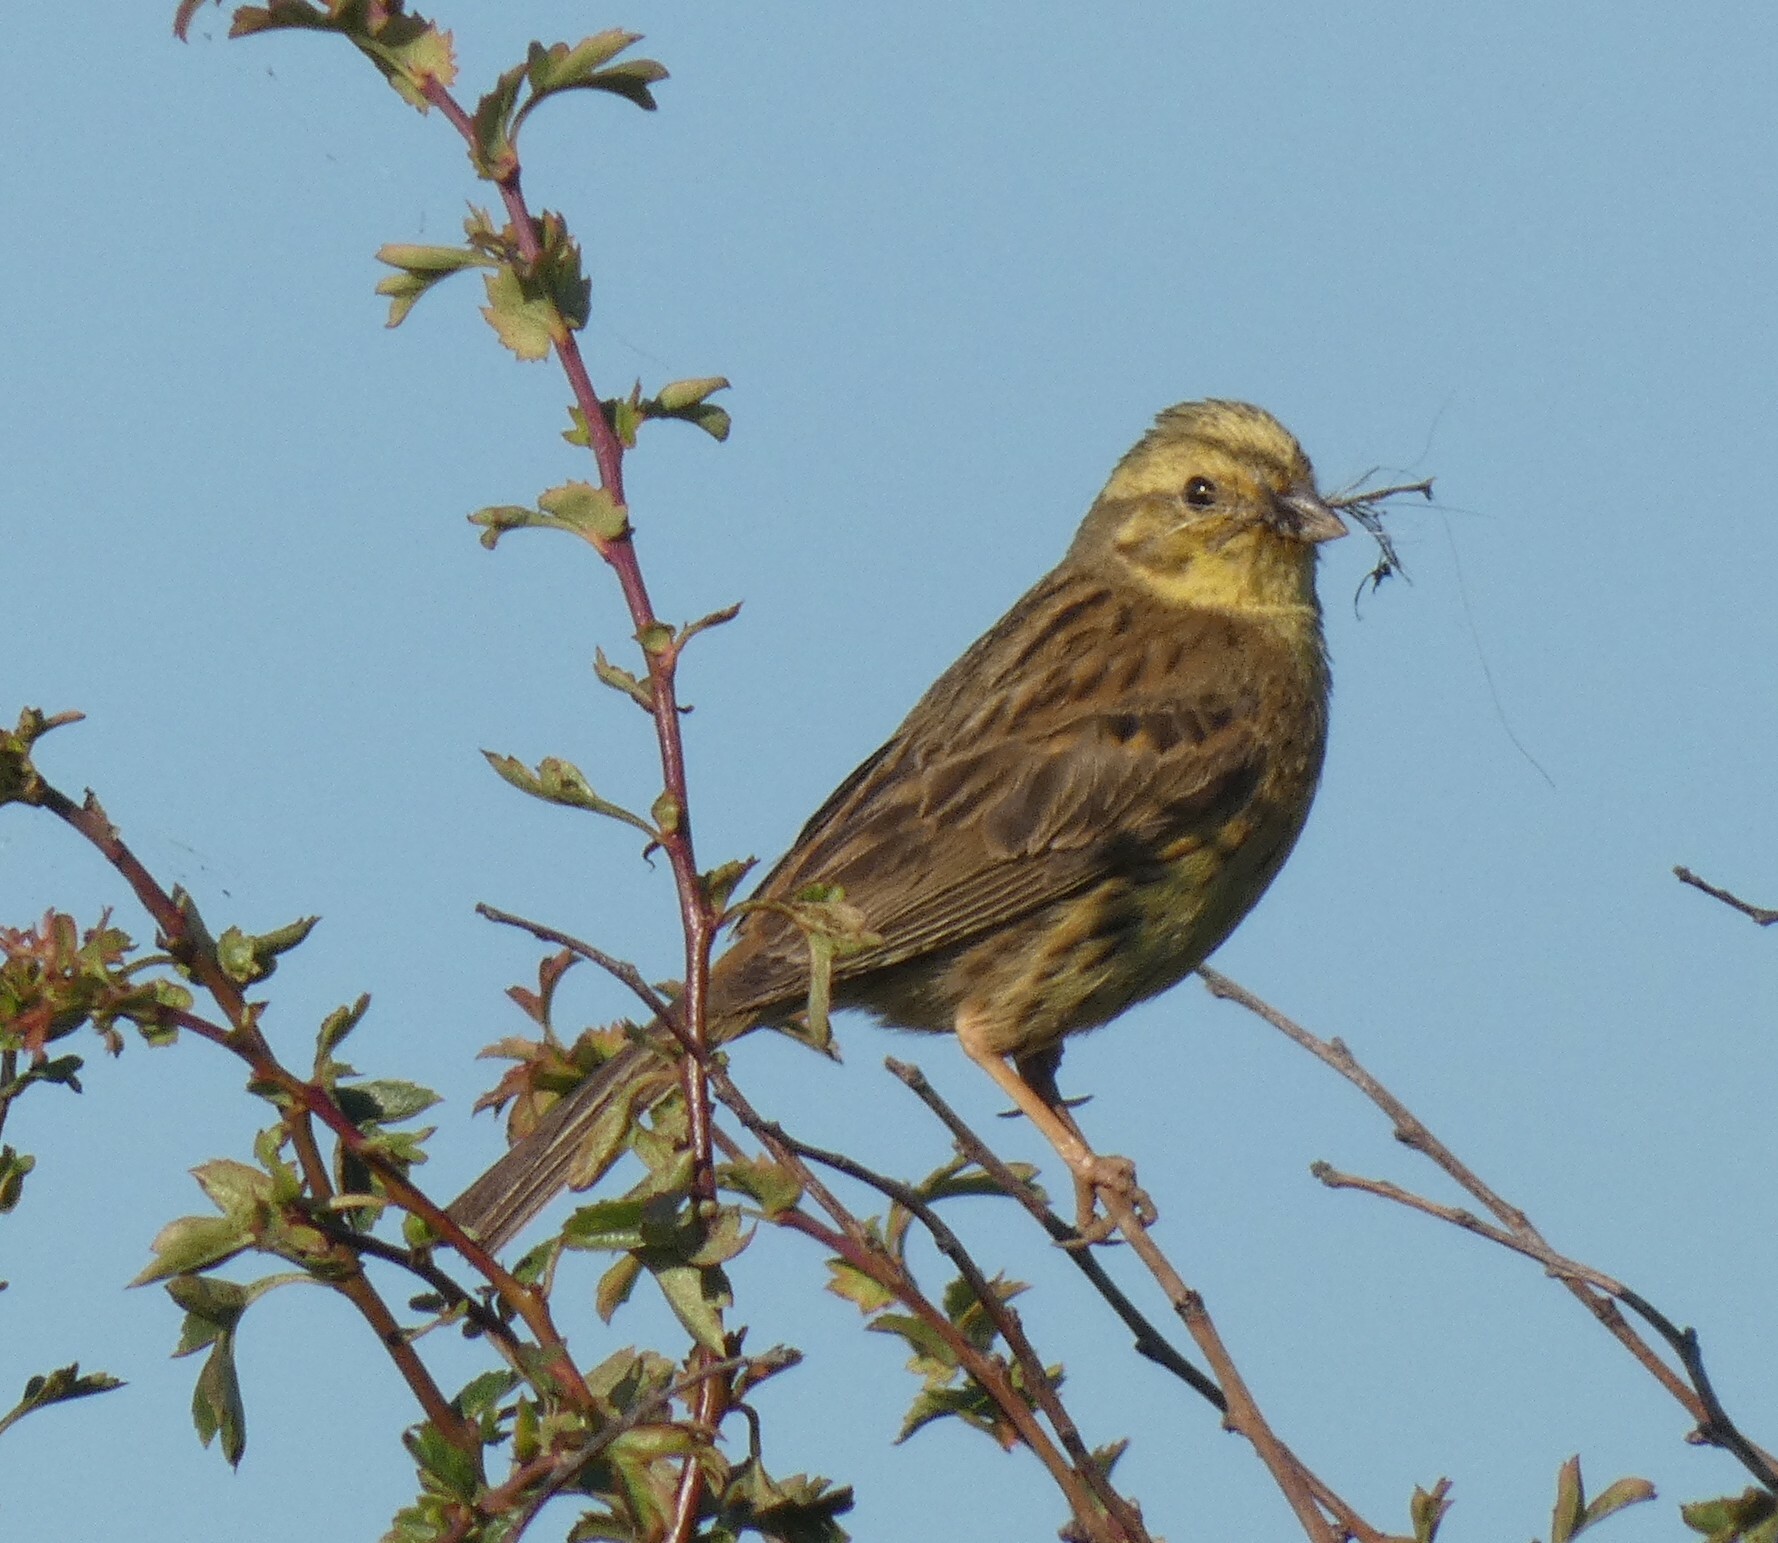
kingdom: Animalia
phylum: Chordata
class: Aves
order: Passeriformes
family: Emberizidae
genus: Emberiza
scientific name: Emberiza citrinella
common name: Yellowhammer
